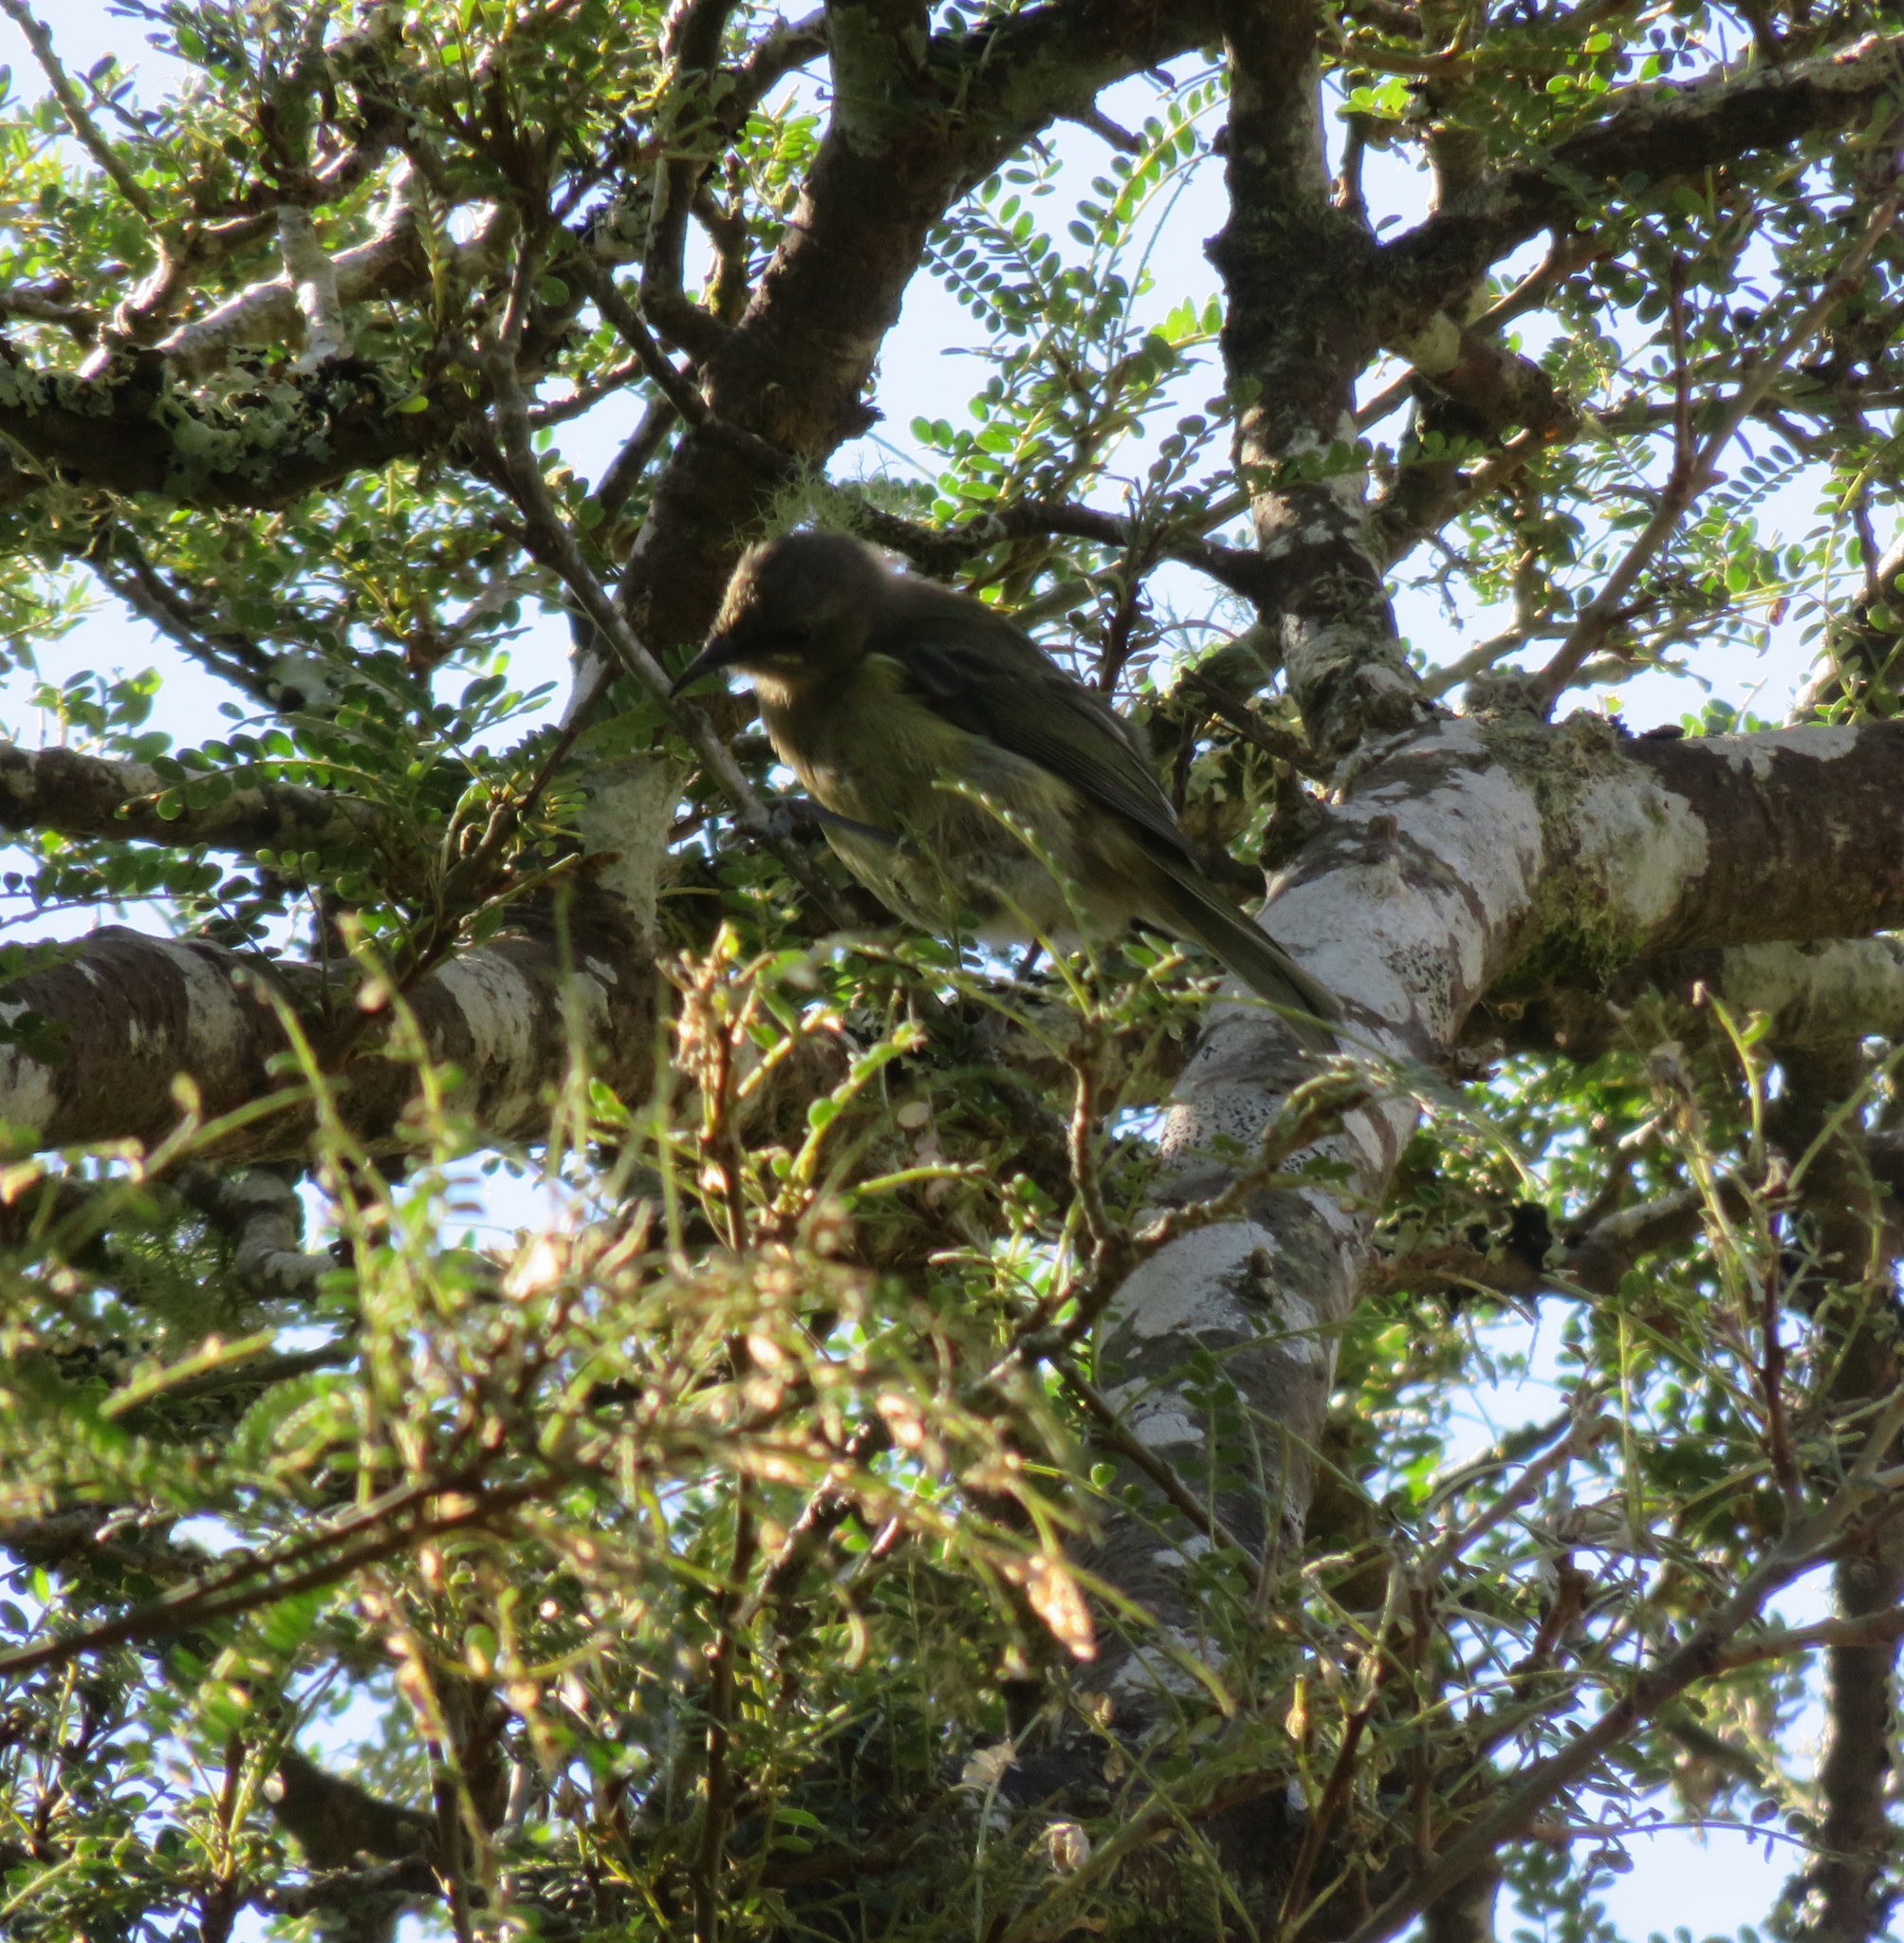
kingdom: Animalia
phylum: Chordata
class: Aves
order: Passeriformes
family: Meliphagidae
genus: Anthornis
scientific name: Anthornis melanura
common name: New zealand bellbird
